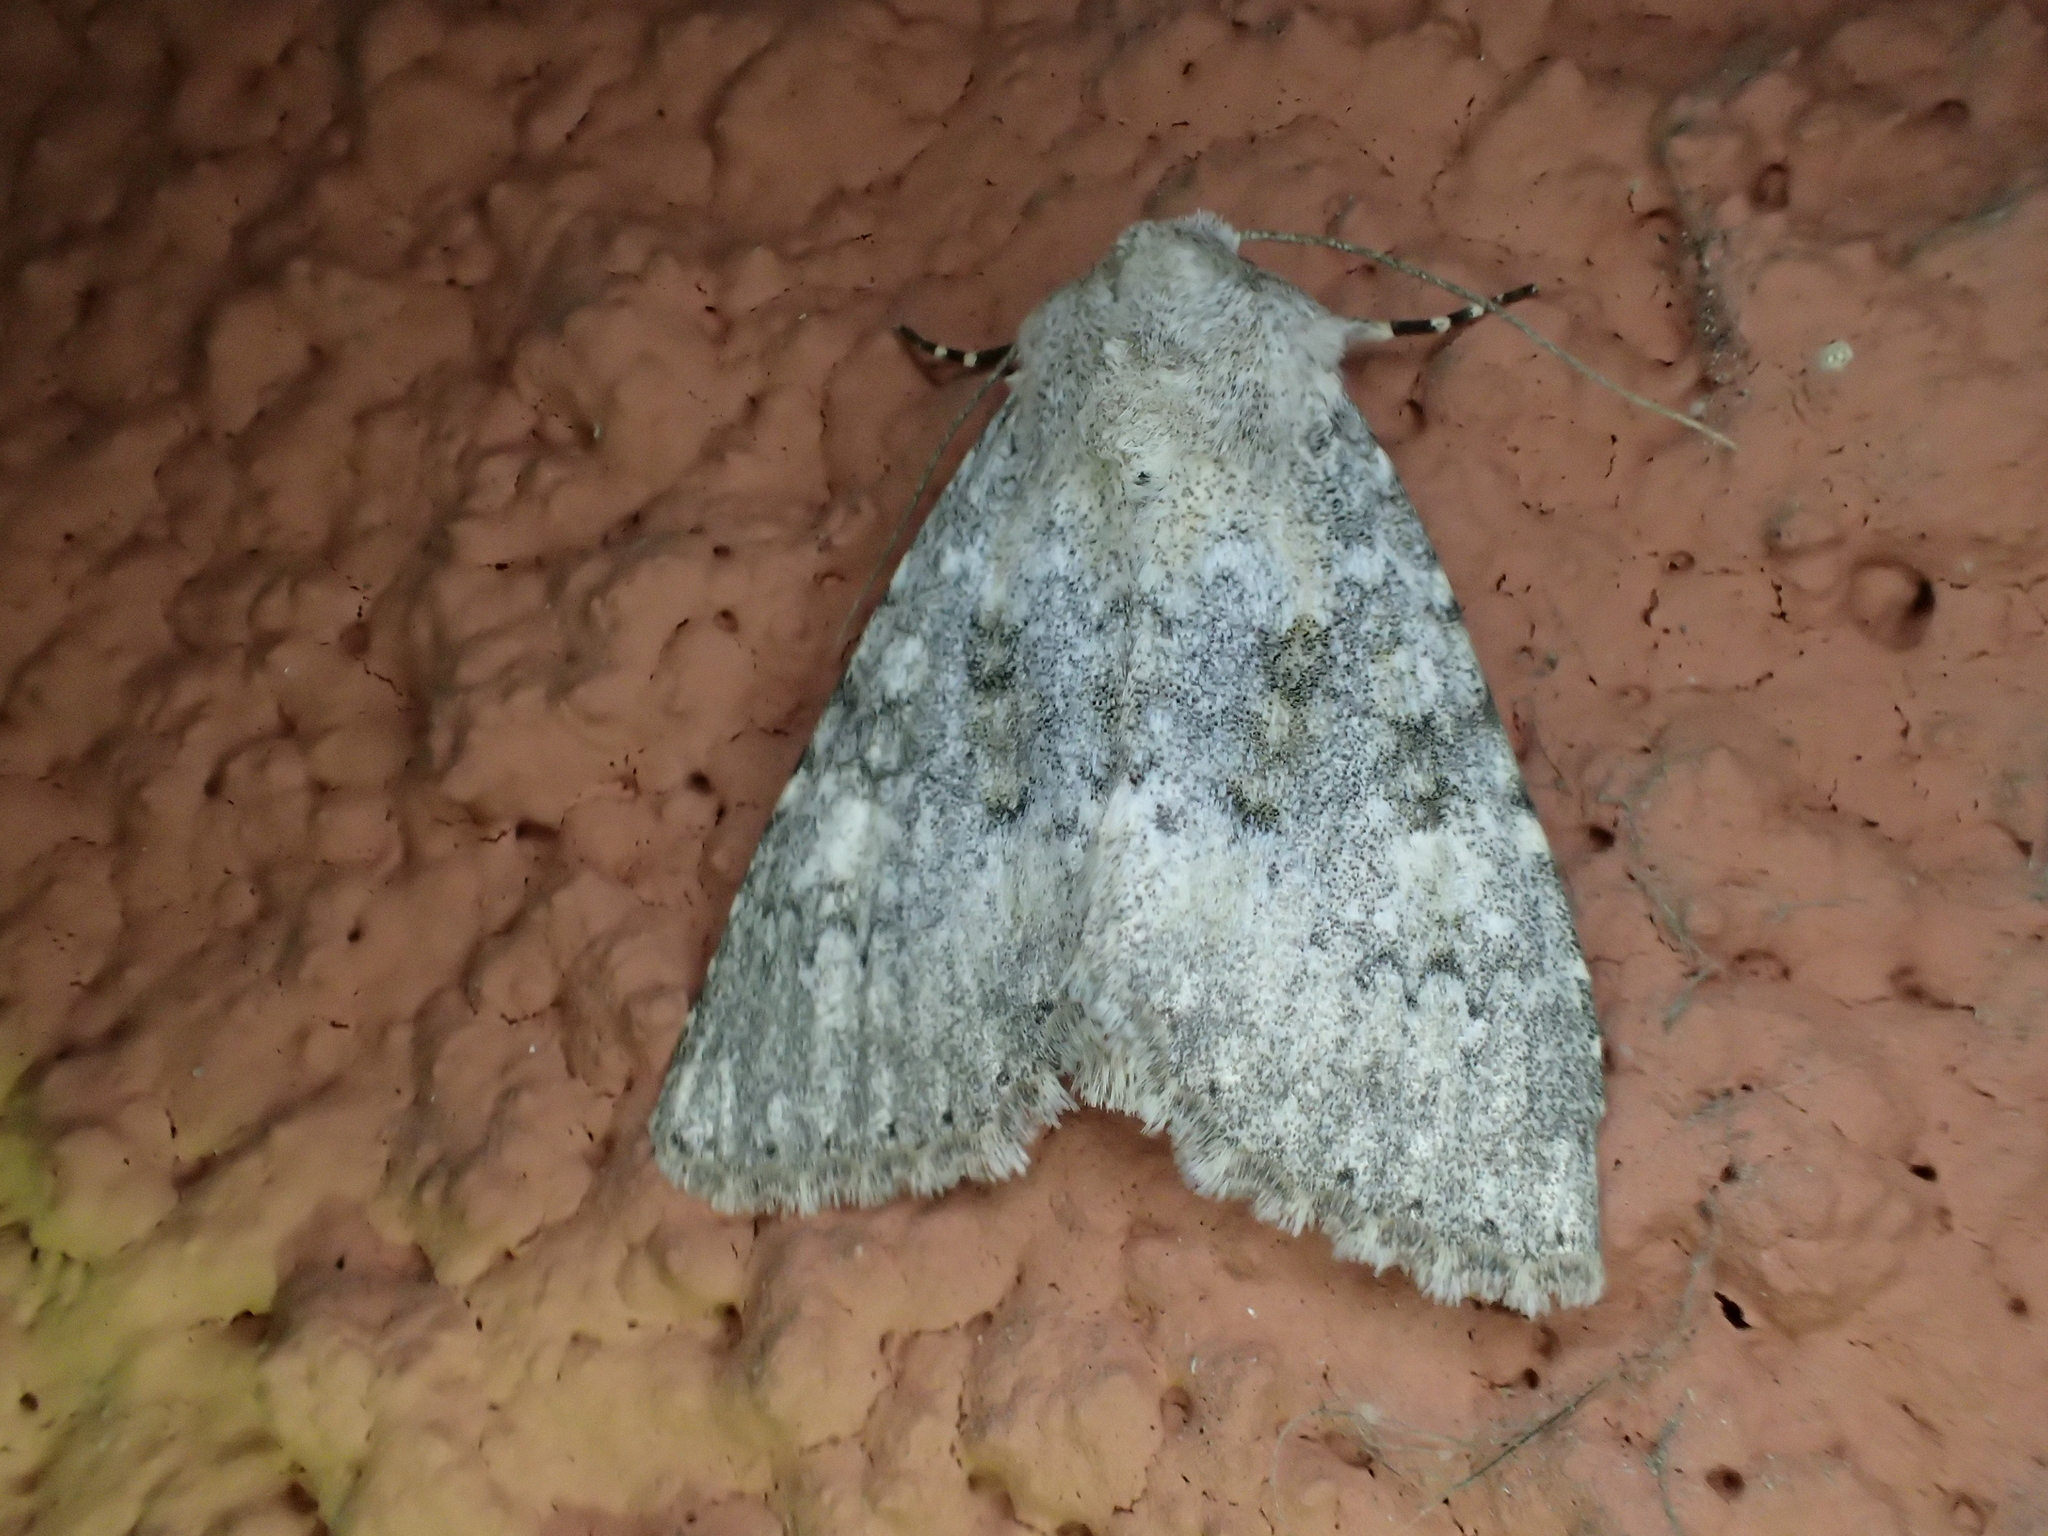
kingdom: Animalia
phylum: Arthropoda
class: Insecta
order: Lepidoptera
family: Noctuidae
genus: Polymixis
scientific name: Polymixis dubia
